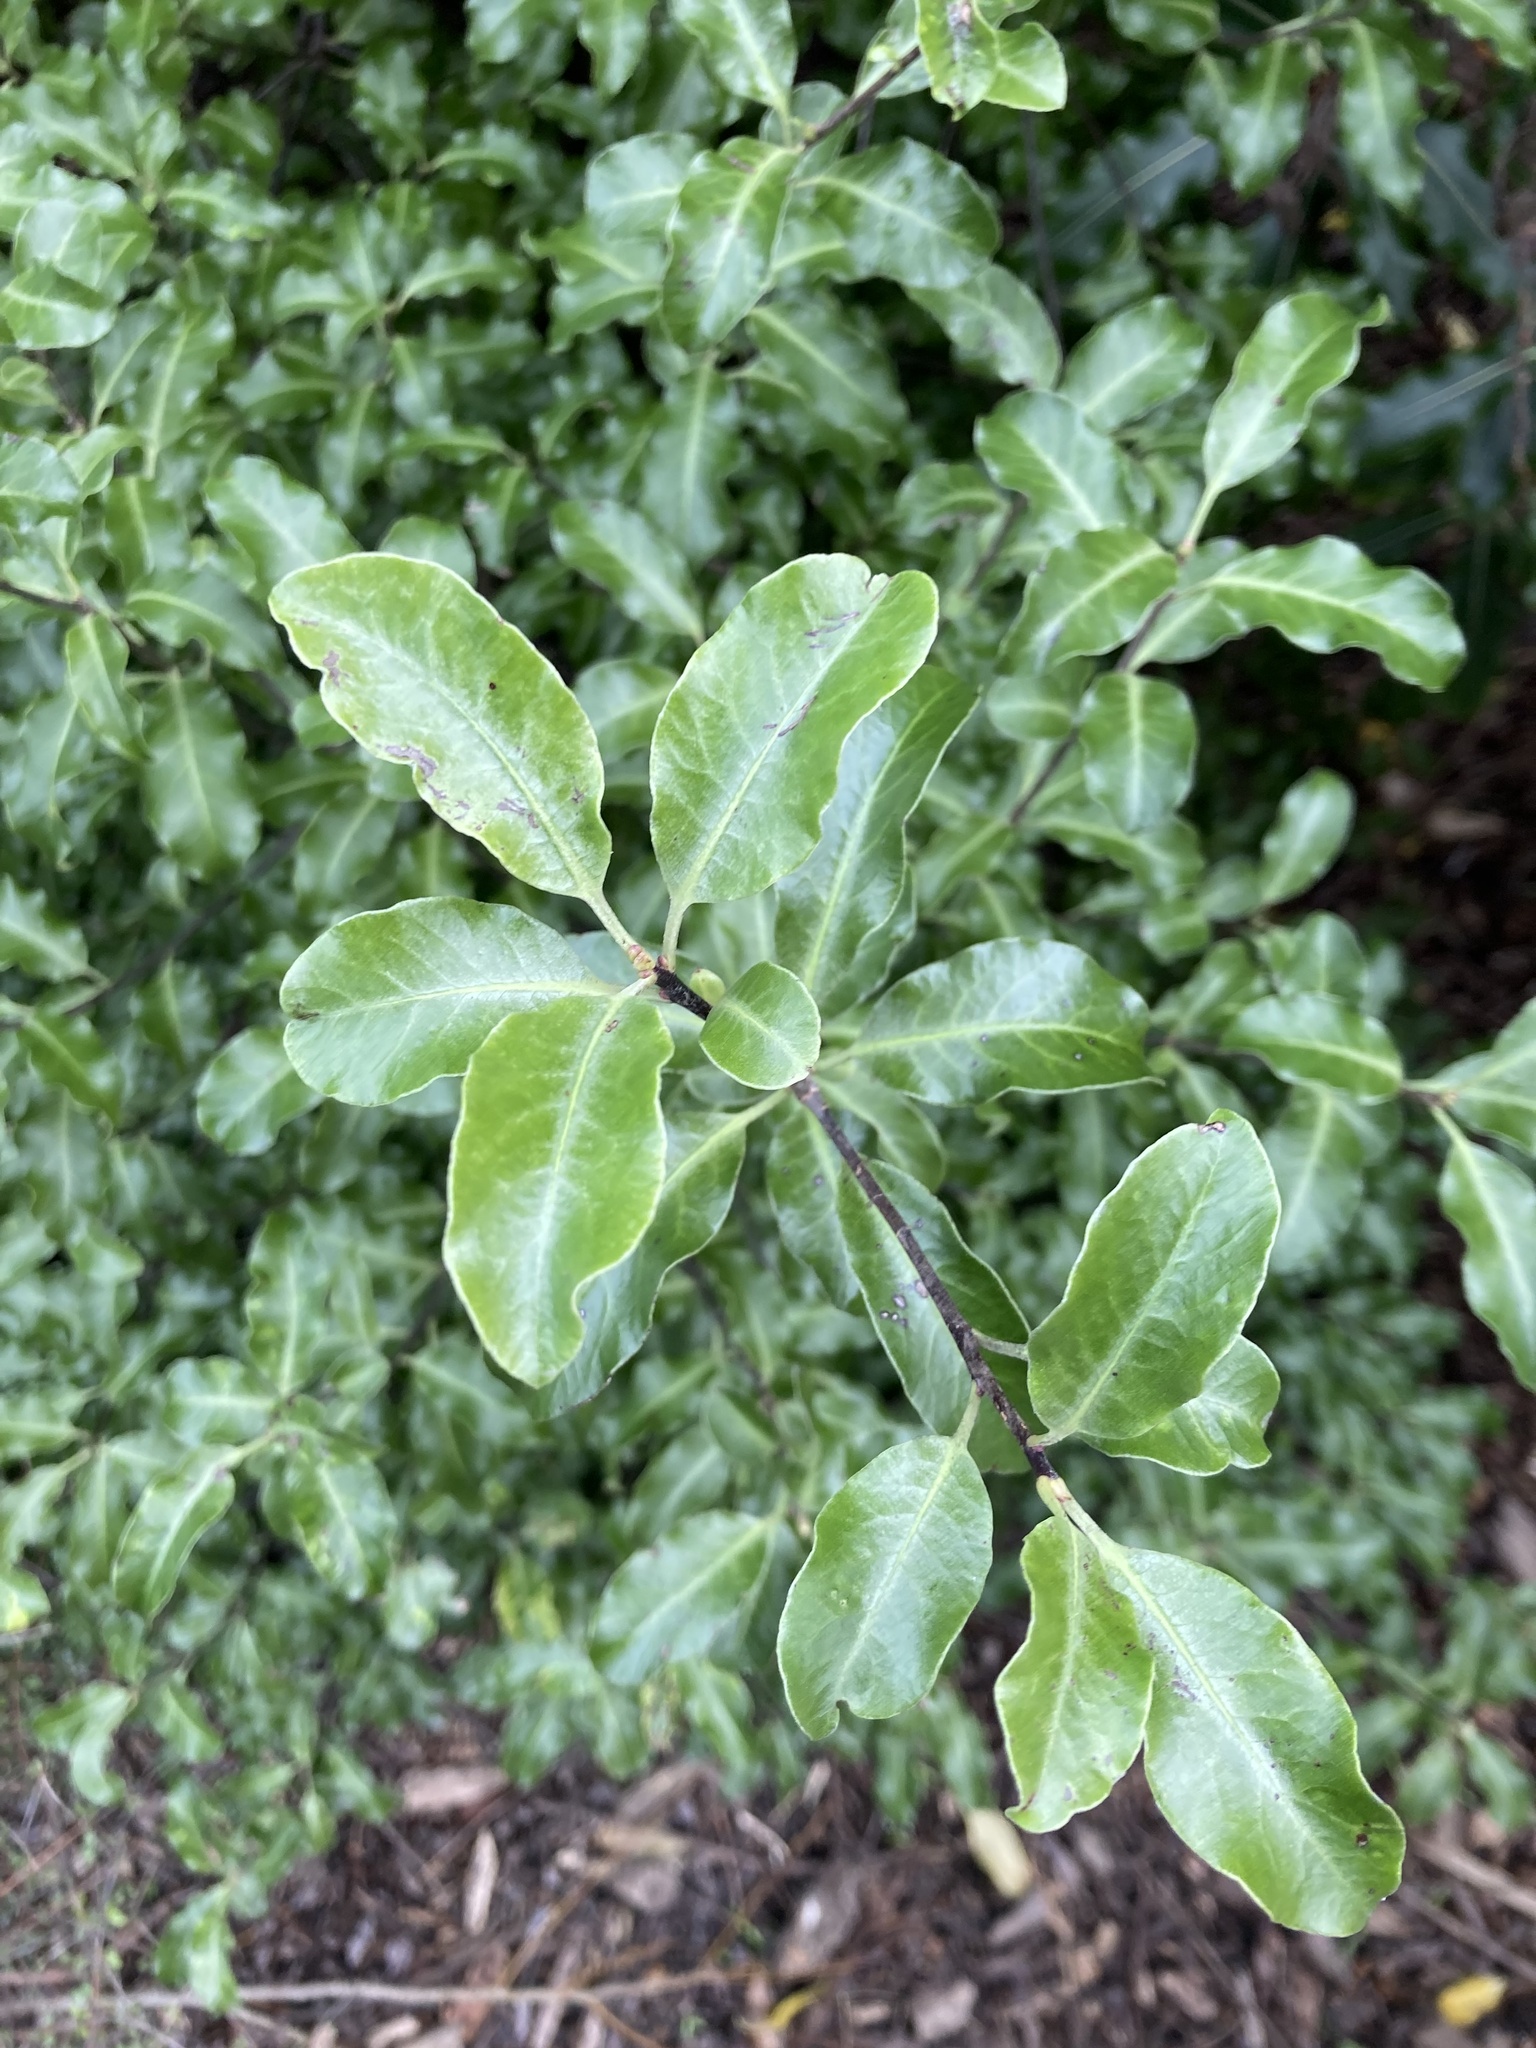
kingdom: Plantae
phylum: Tracheophyta
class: Magnoliopsida
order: Apiales
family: Pittosporaceae
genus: Pittosporum
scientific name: Pittosporum tenuifolium
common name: Kohuhu
